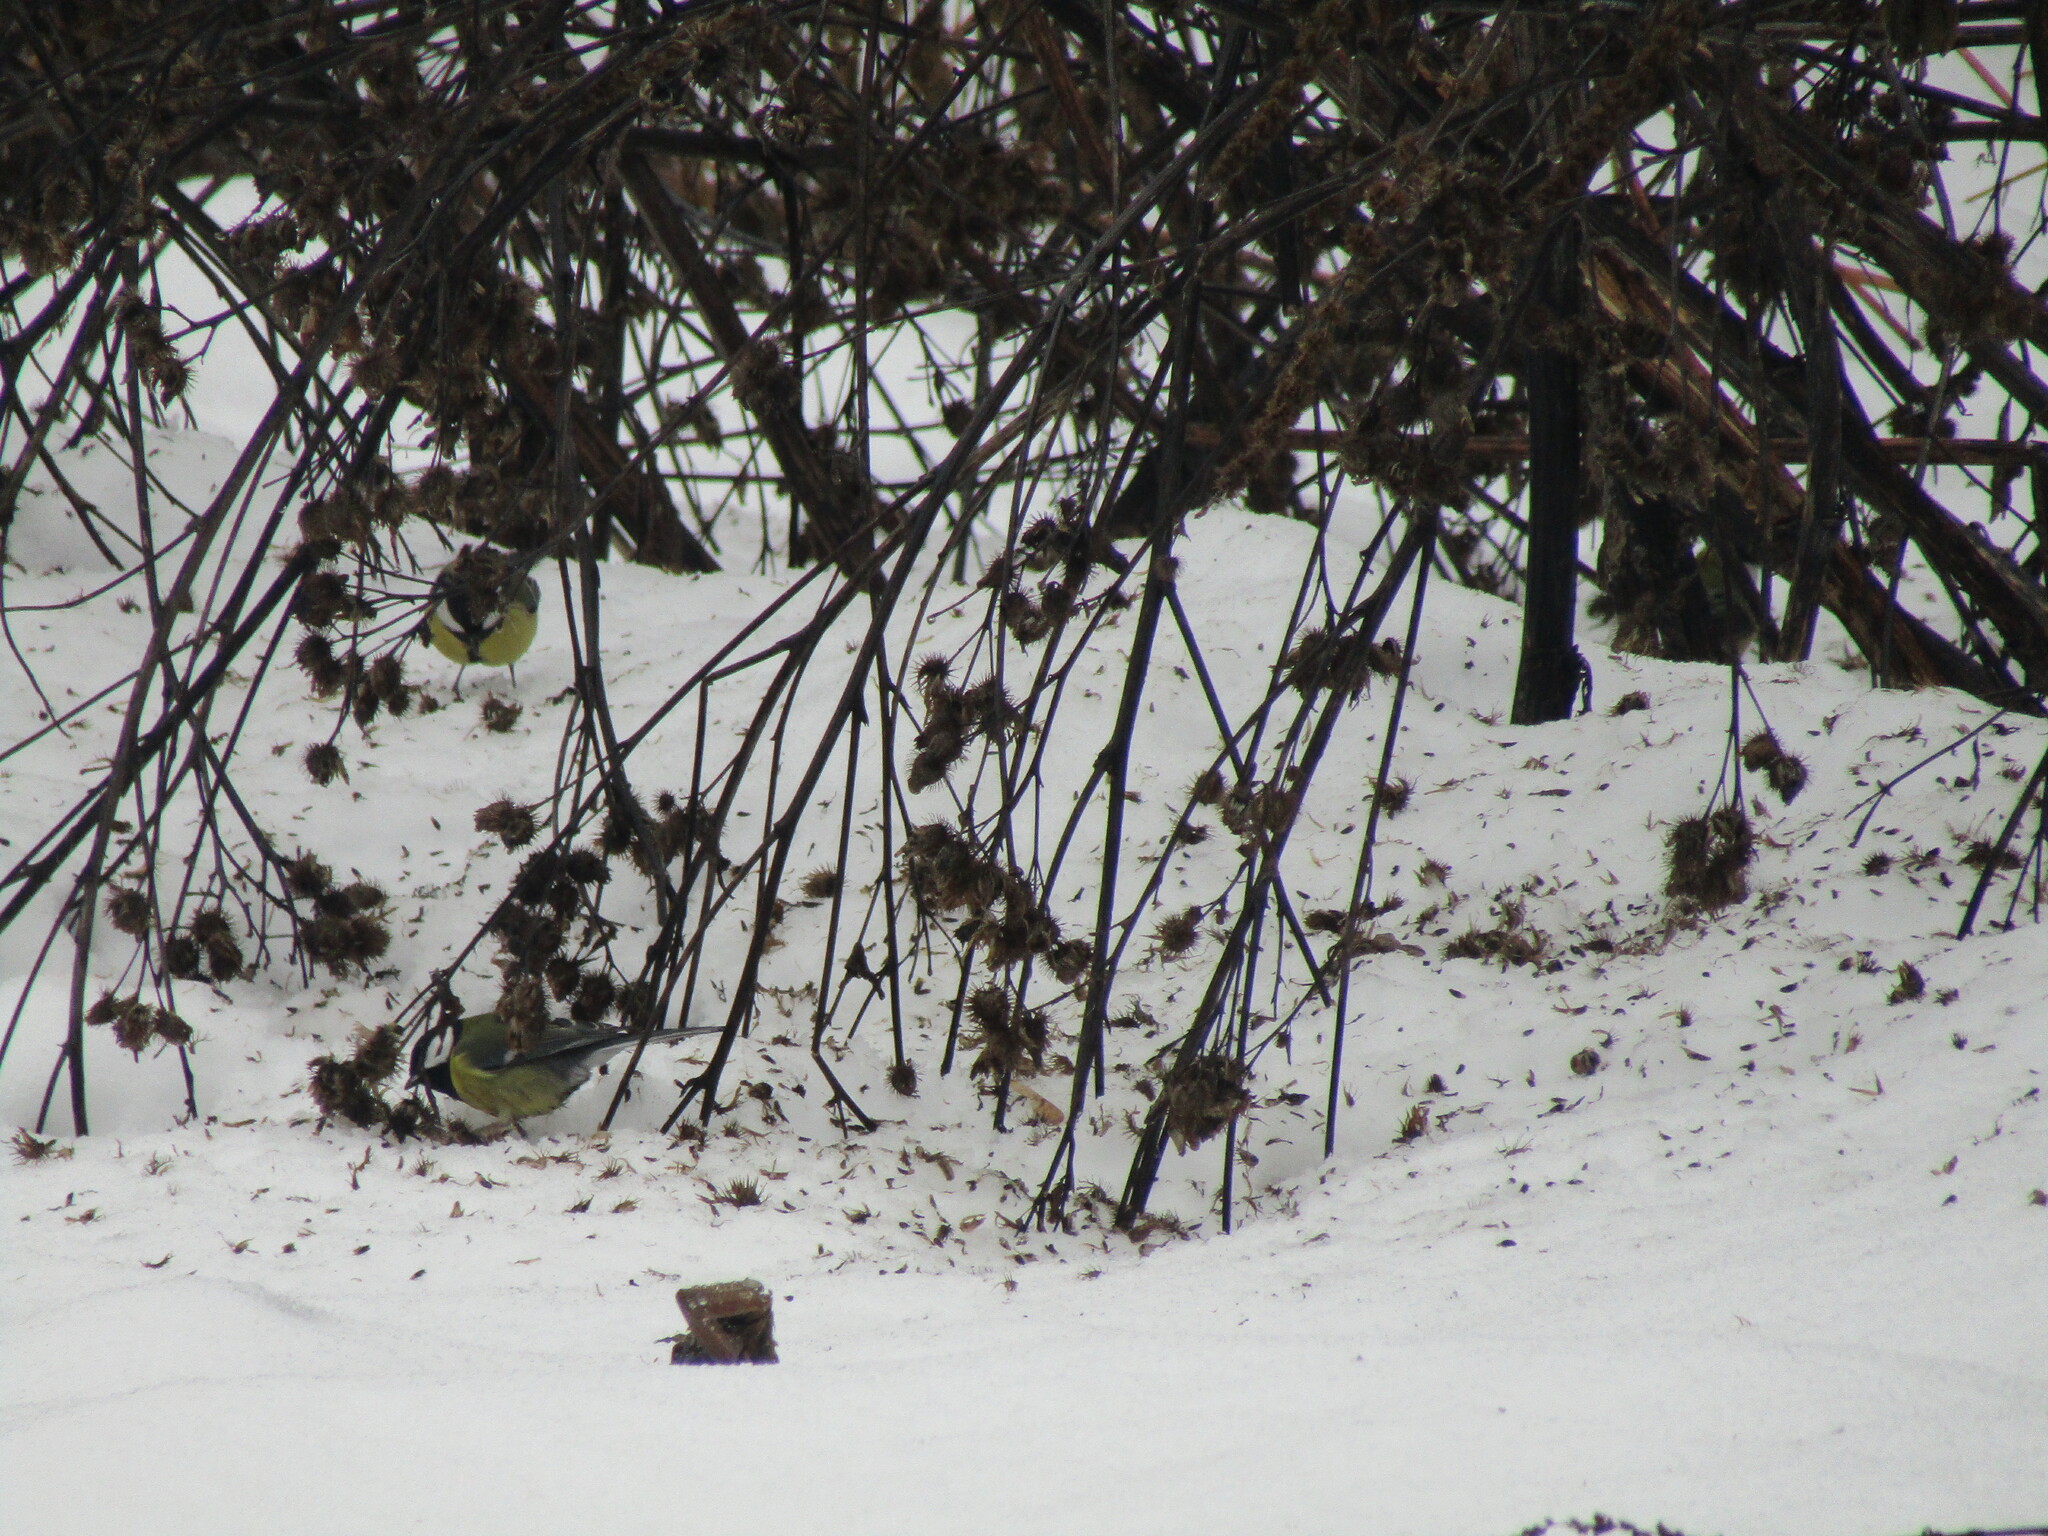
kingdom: Animalia
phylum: Chordata
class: Aves
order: Passeriformes
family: Paridae
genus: Parus
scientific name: Parus major
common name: Great tit
